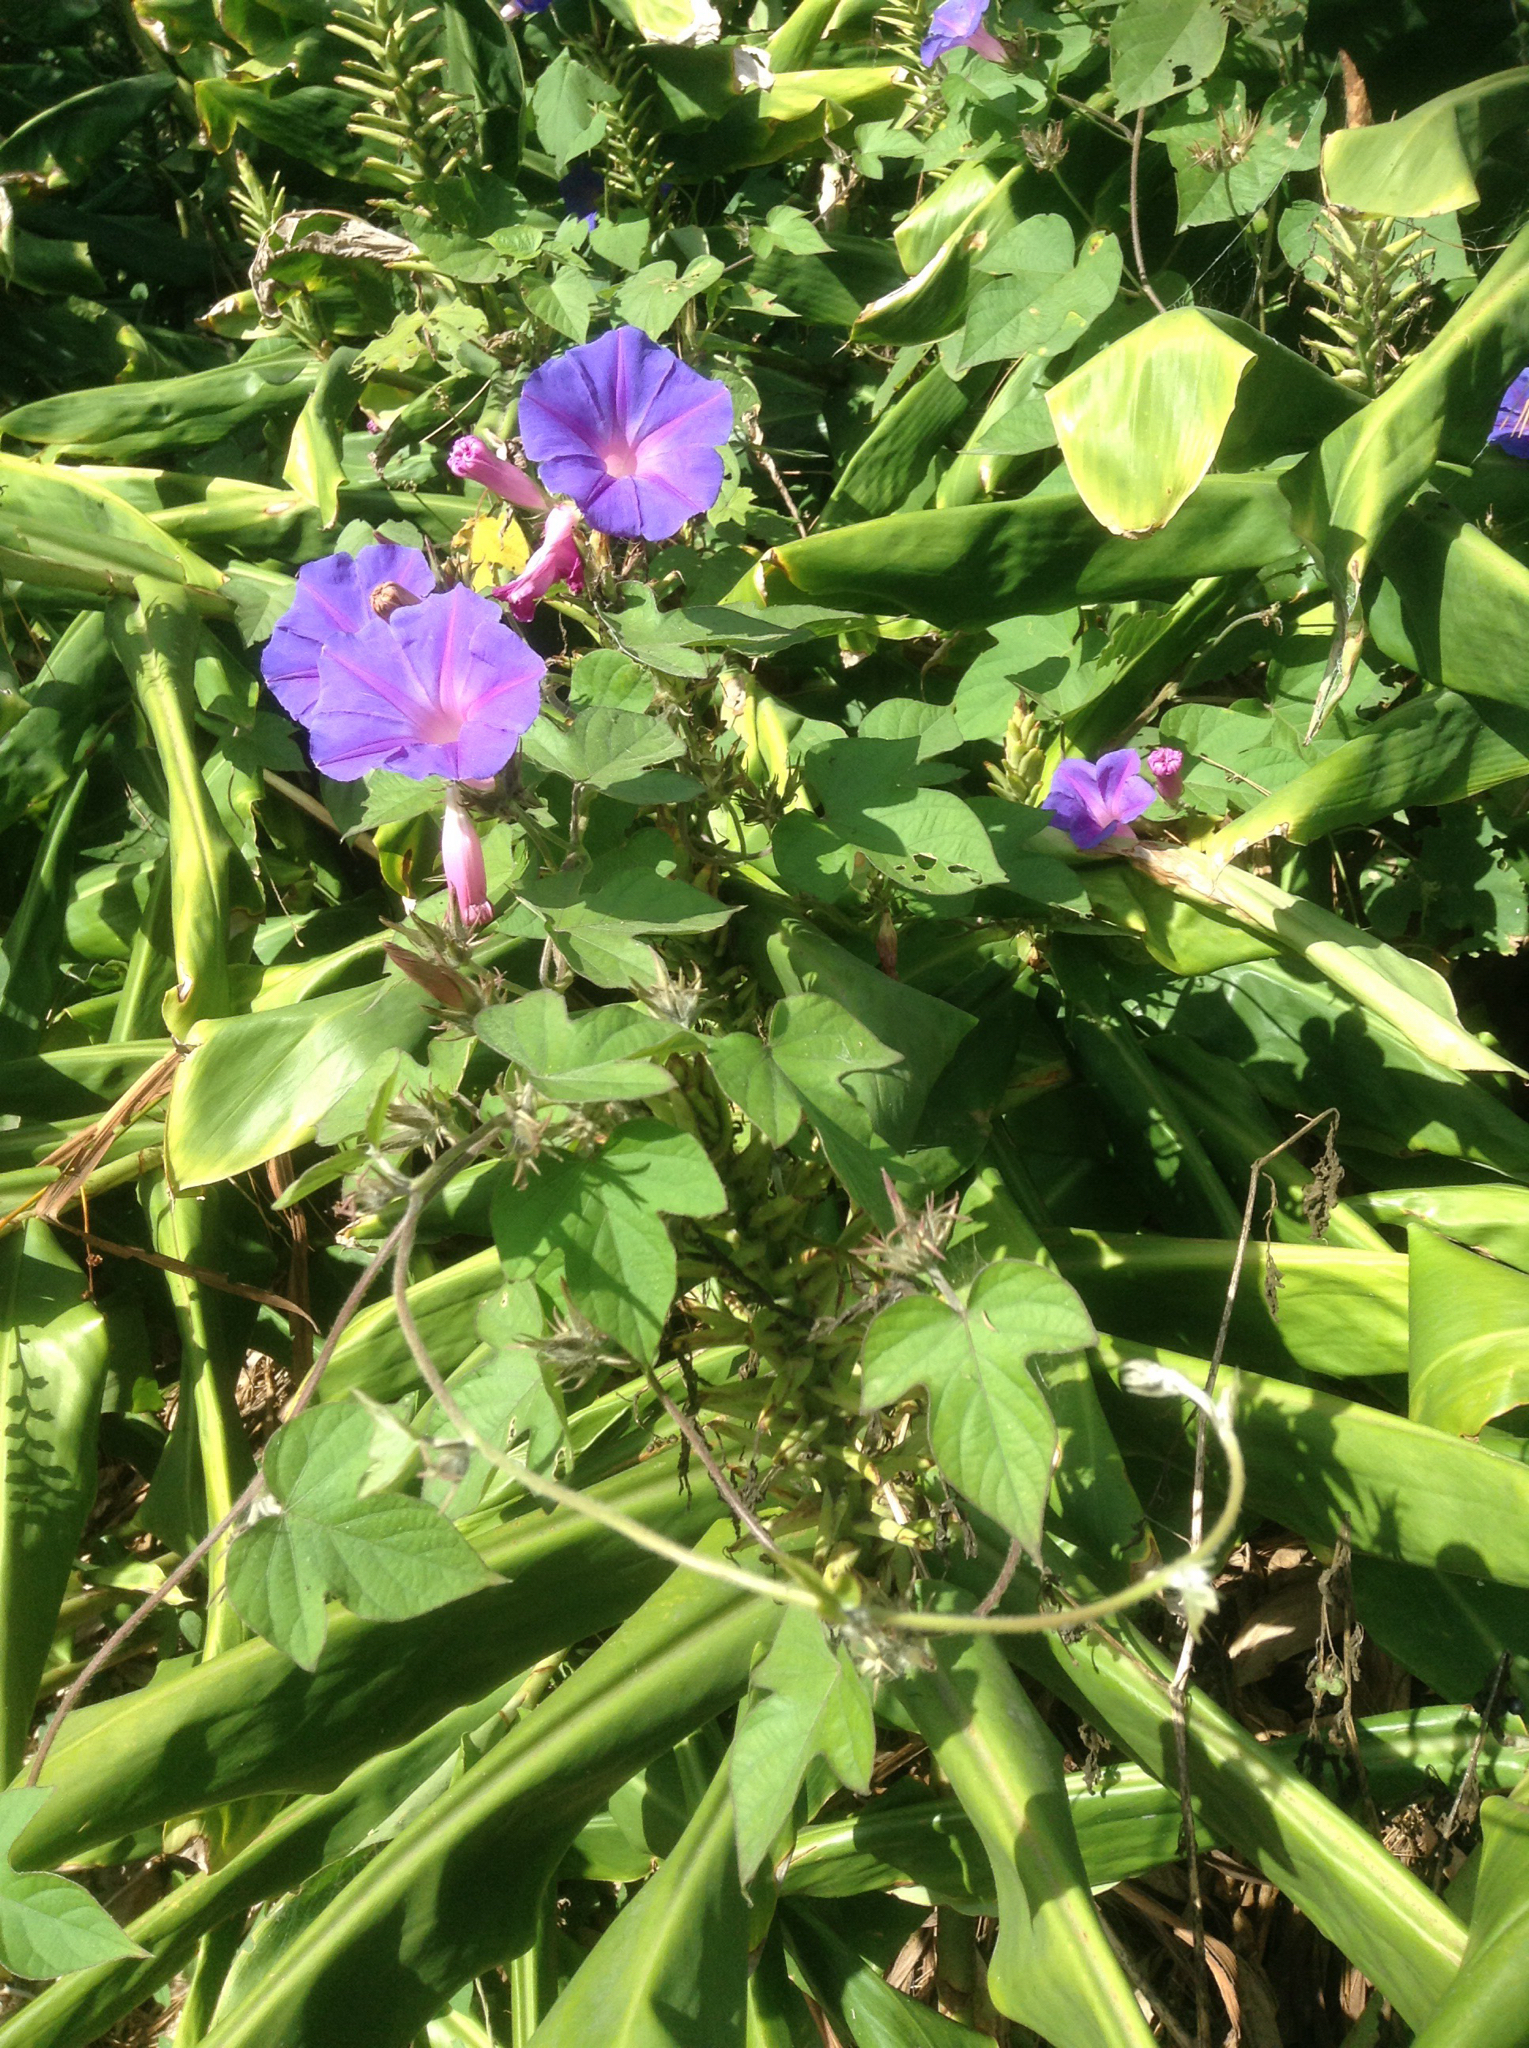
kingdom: Plantae
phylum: Tracheophyta
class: Magnoliopsida
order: Solanales
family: Convolvulaceae
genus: Ipomoea
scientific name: Ipomoea indica
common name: Blue dawnflower
